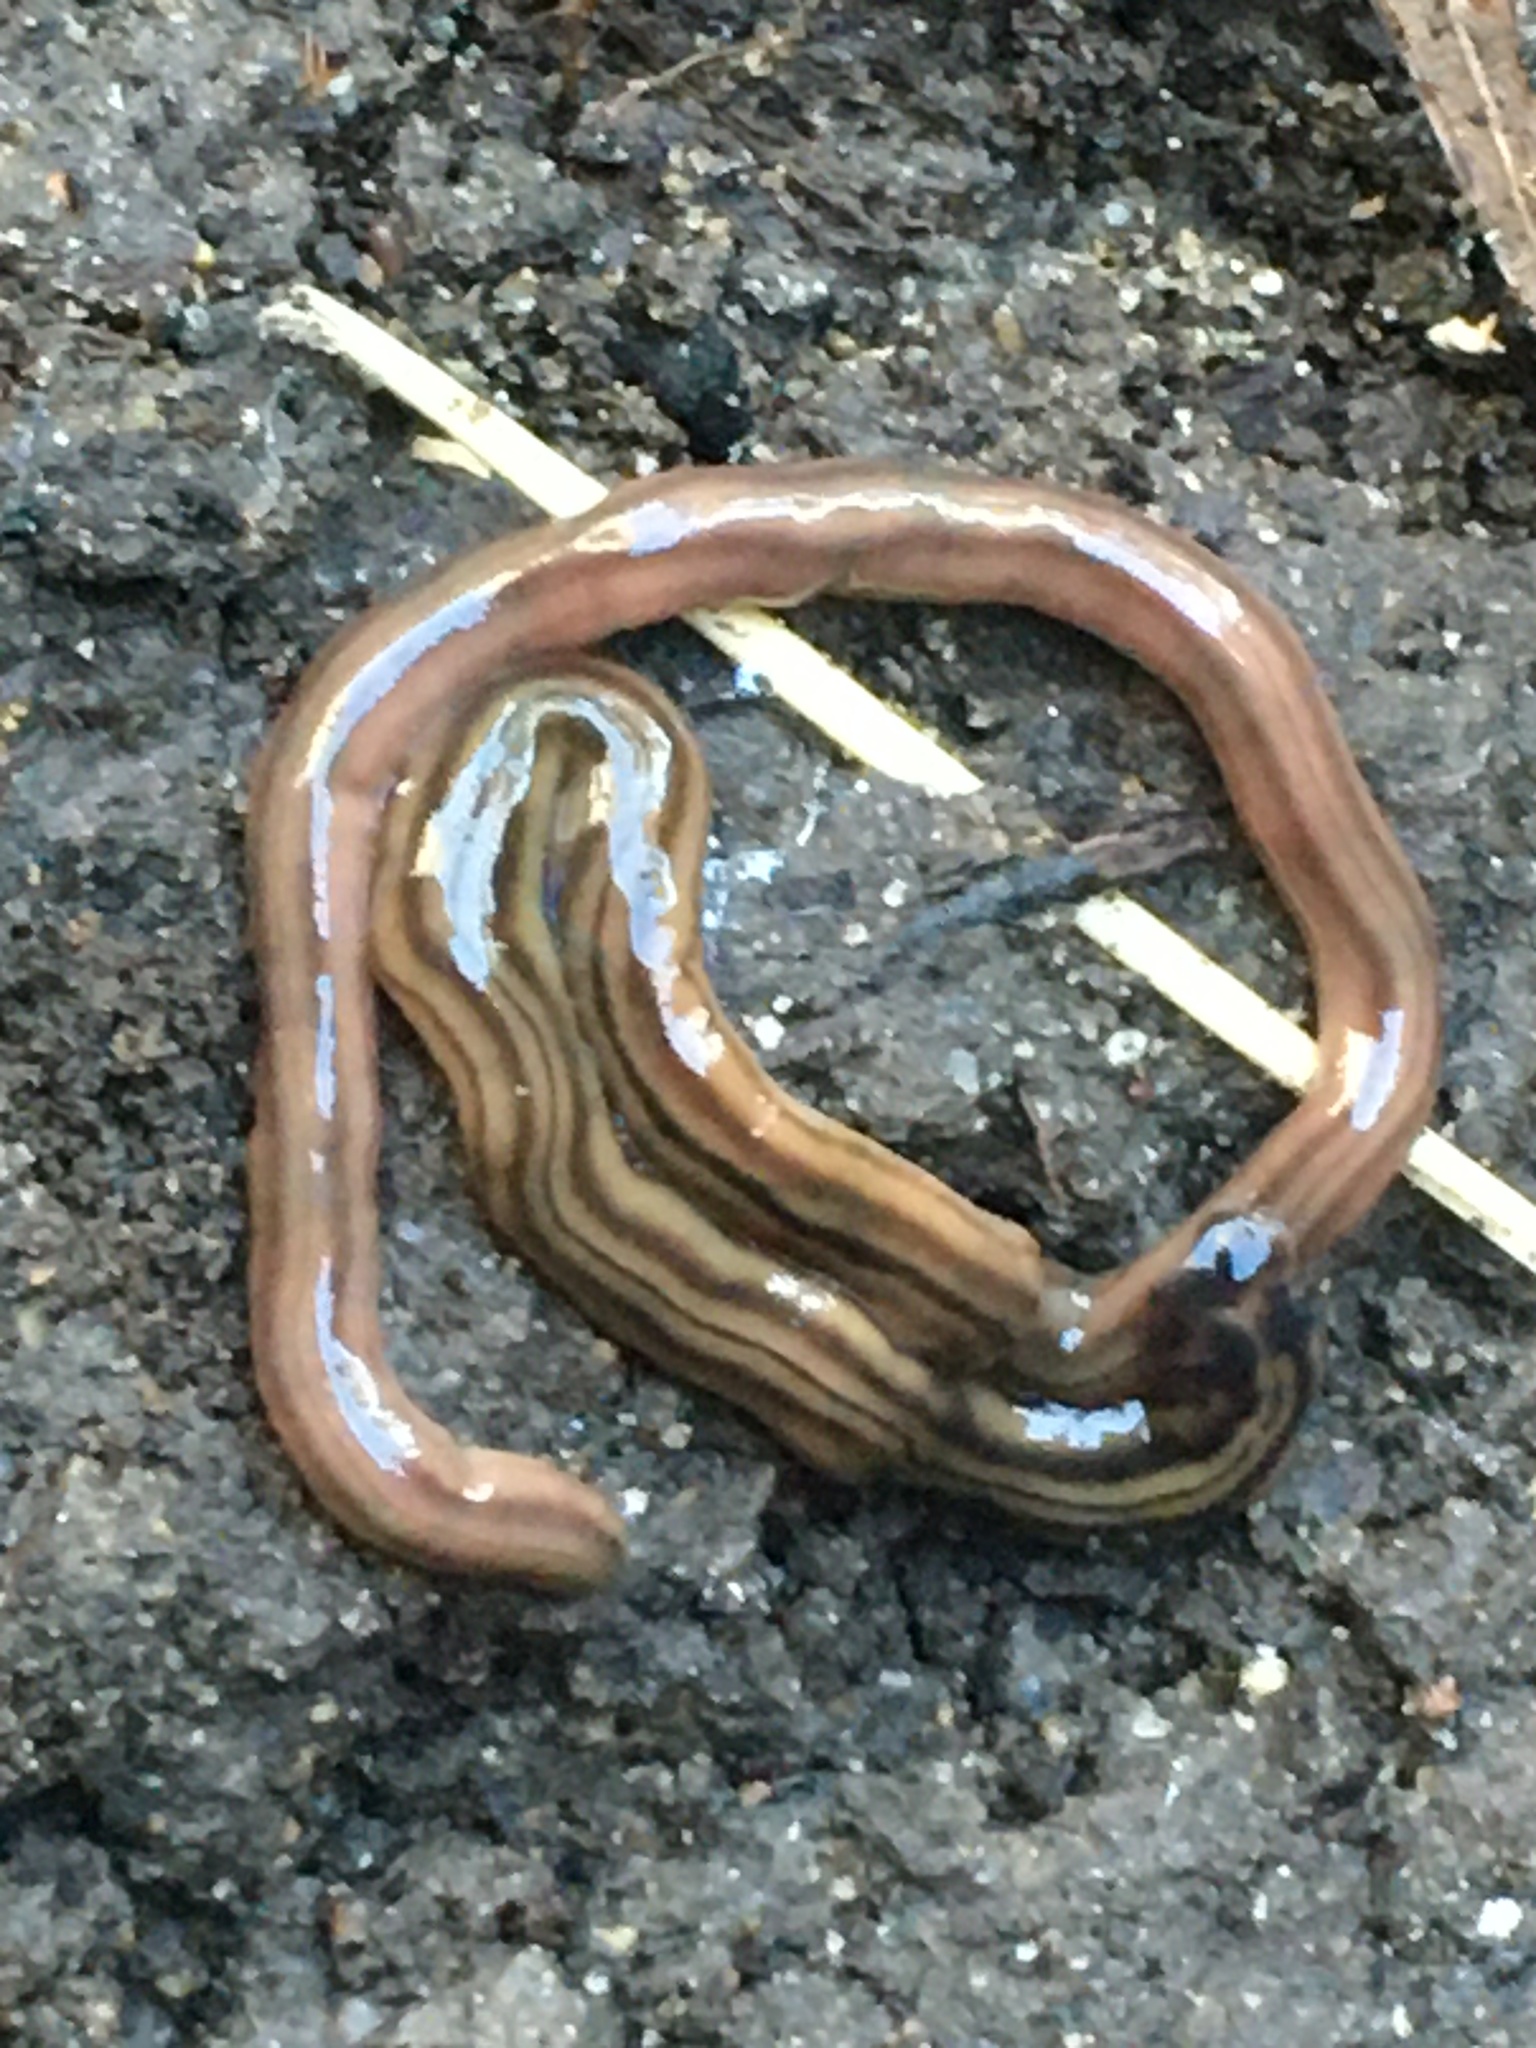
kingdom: Animalia
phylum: Platyhelminthes
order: Tricladida
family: Geoplanidae
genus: Bipalium
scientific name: Bipalium kewense
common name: Hammerhead flatworm
